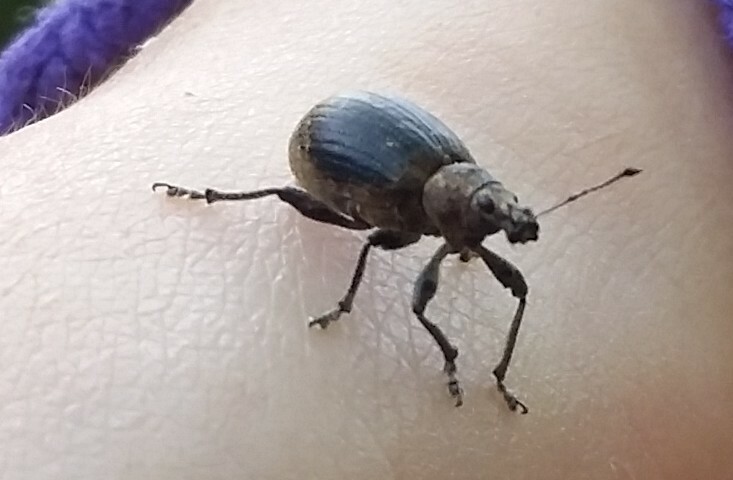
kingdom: Animalia
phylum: Arthropoda
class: Insecta
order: Coleoptera
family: Curculionidae
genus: Liophloeus
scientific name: Liophloeus tessulatus
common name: Weevil
